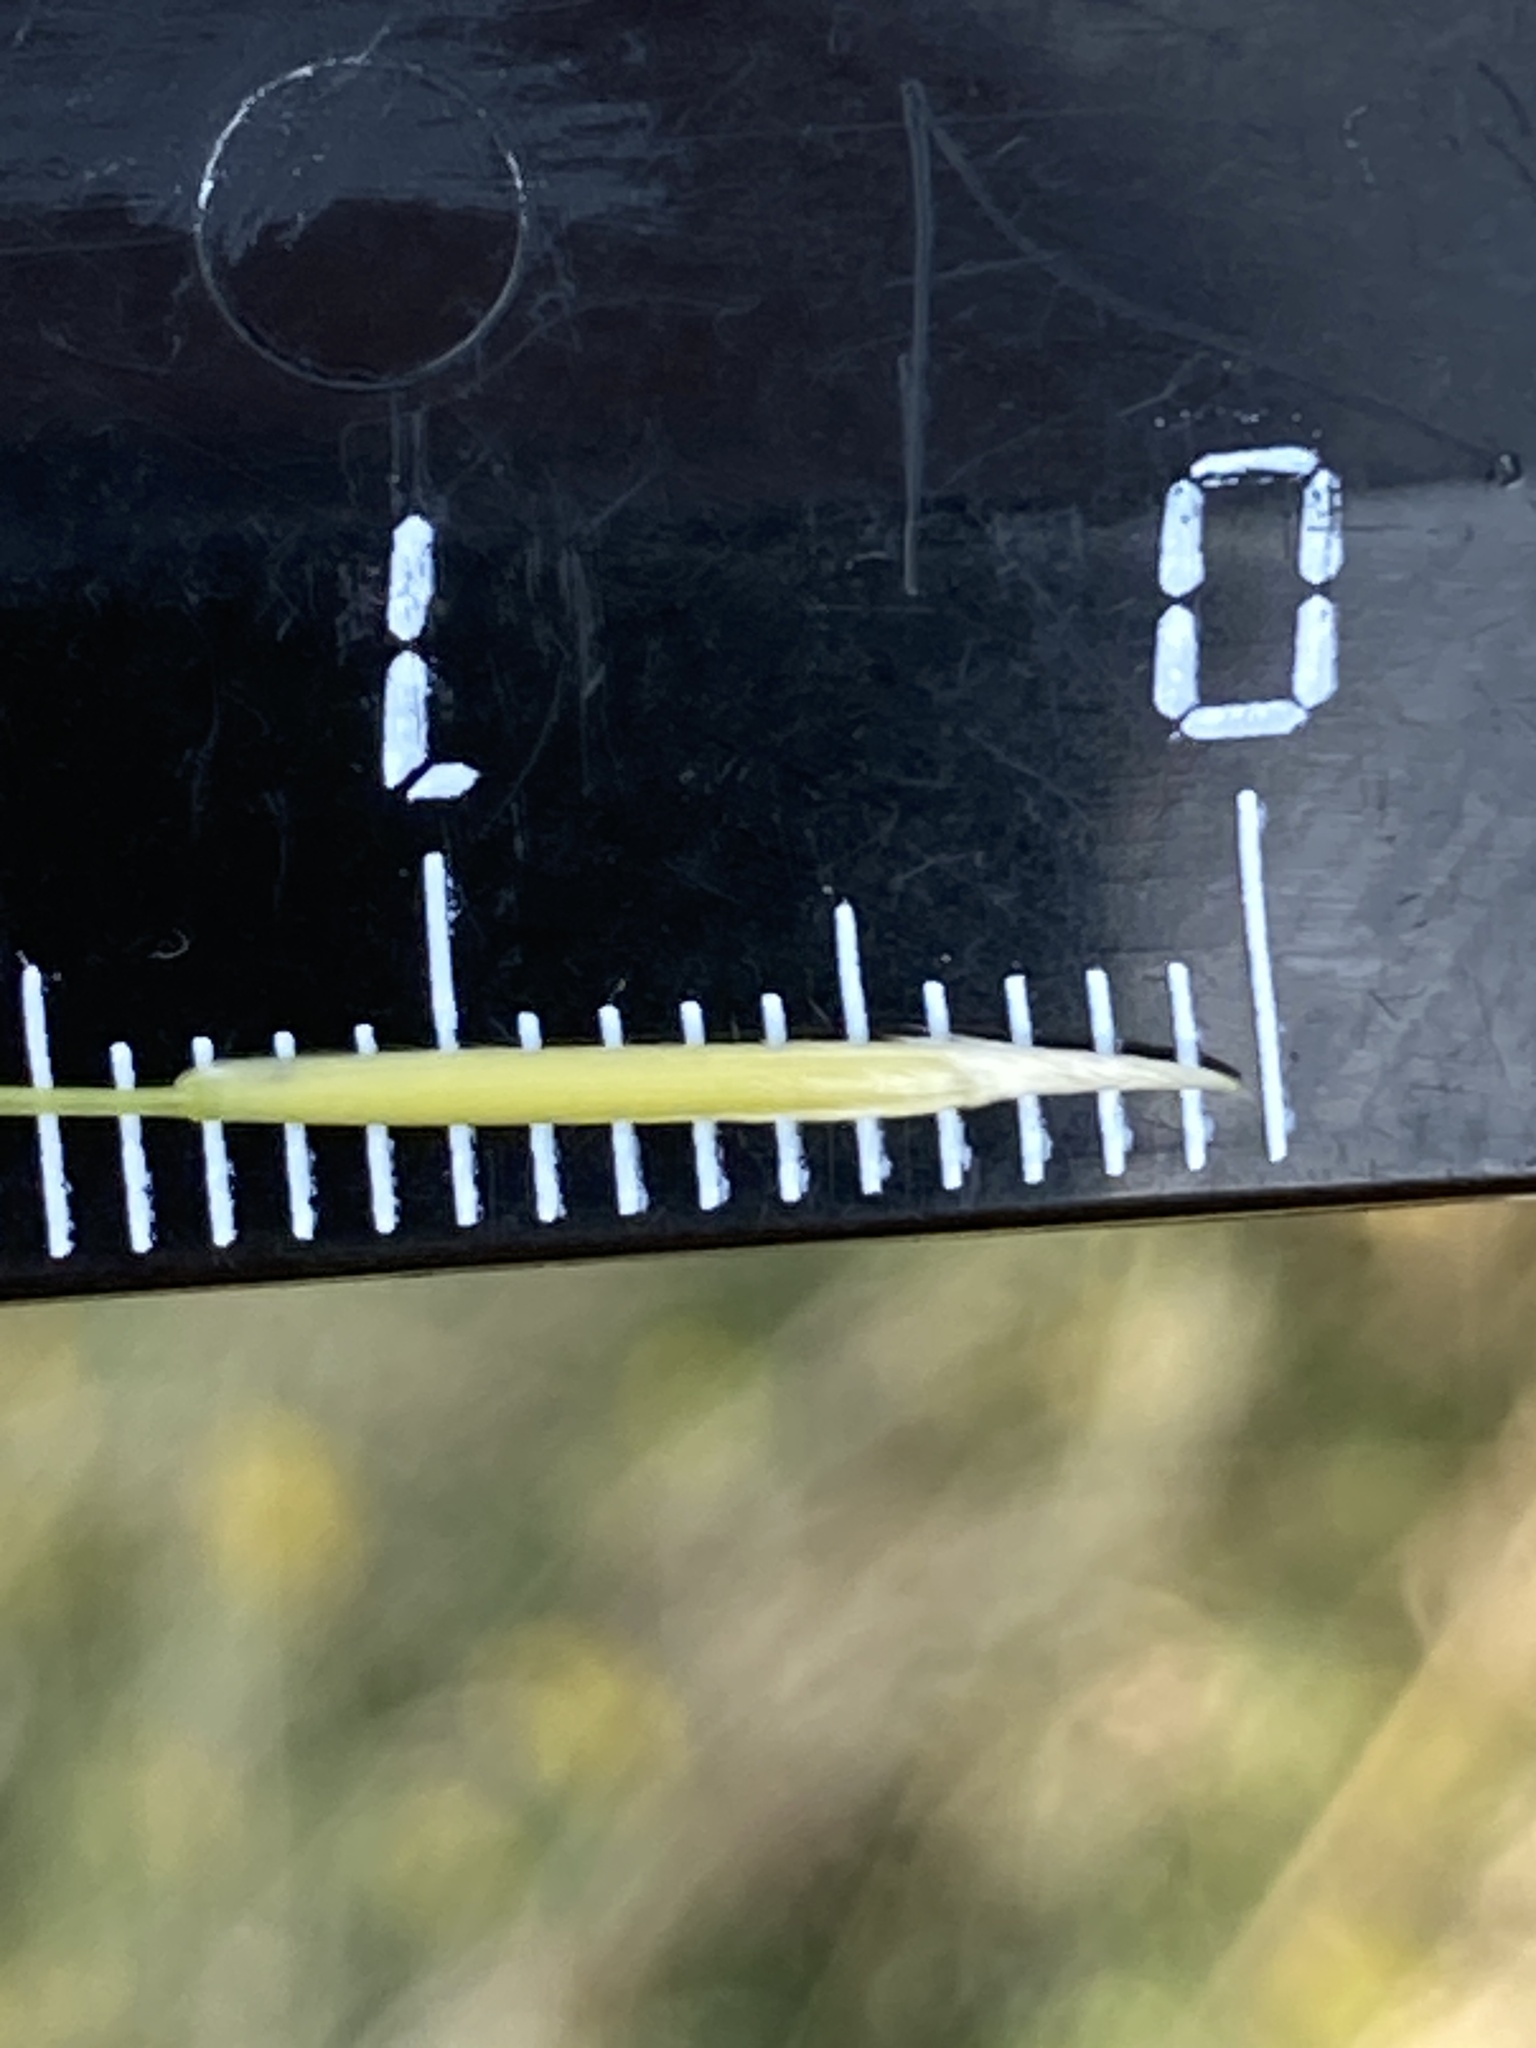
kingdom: Plantae
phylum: Tracheophyta
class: Liliopsida
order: Poales
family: Poaceae
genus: Stipa
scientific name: Stipa capillata
